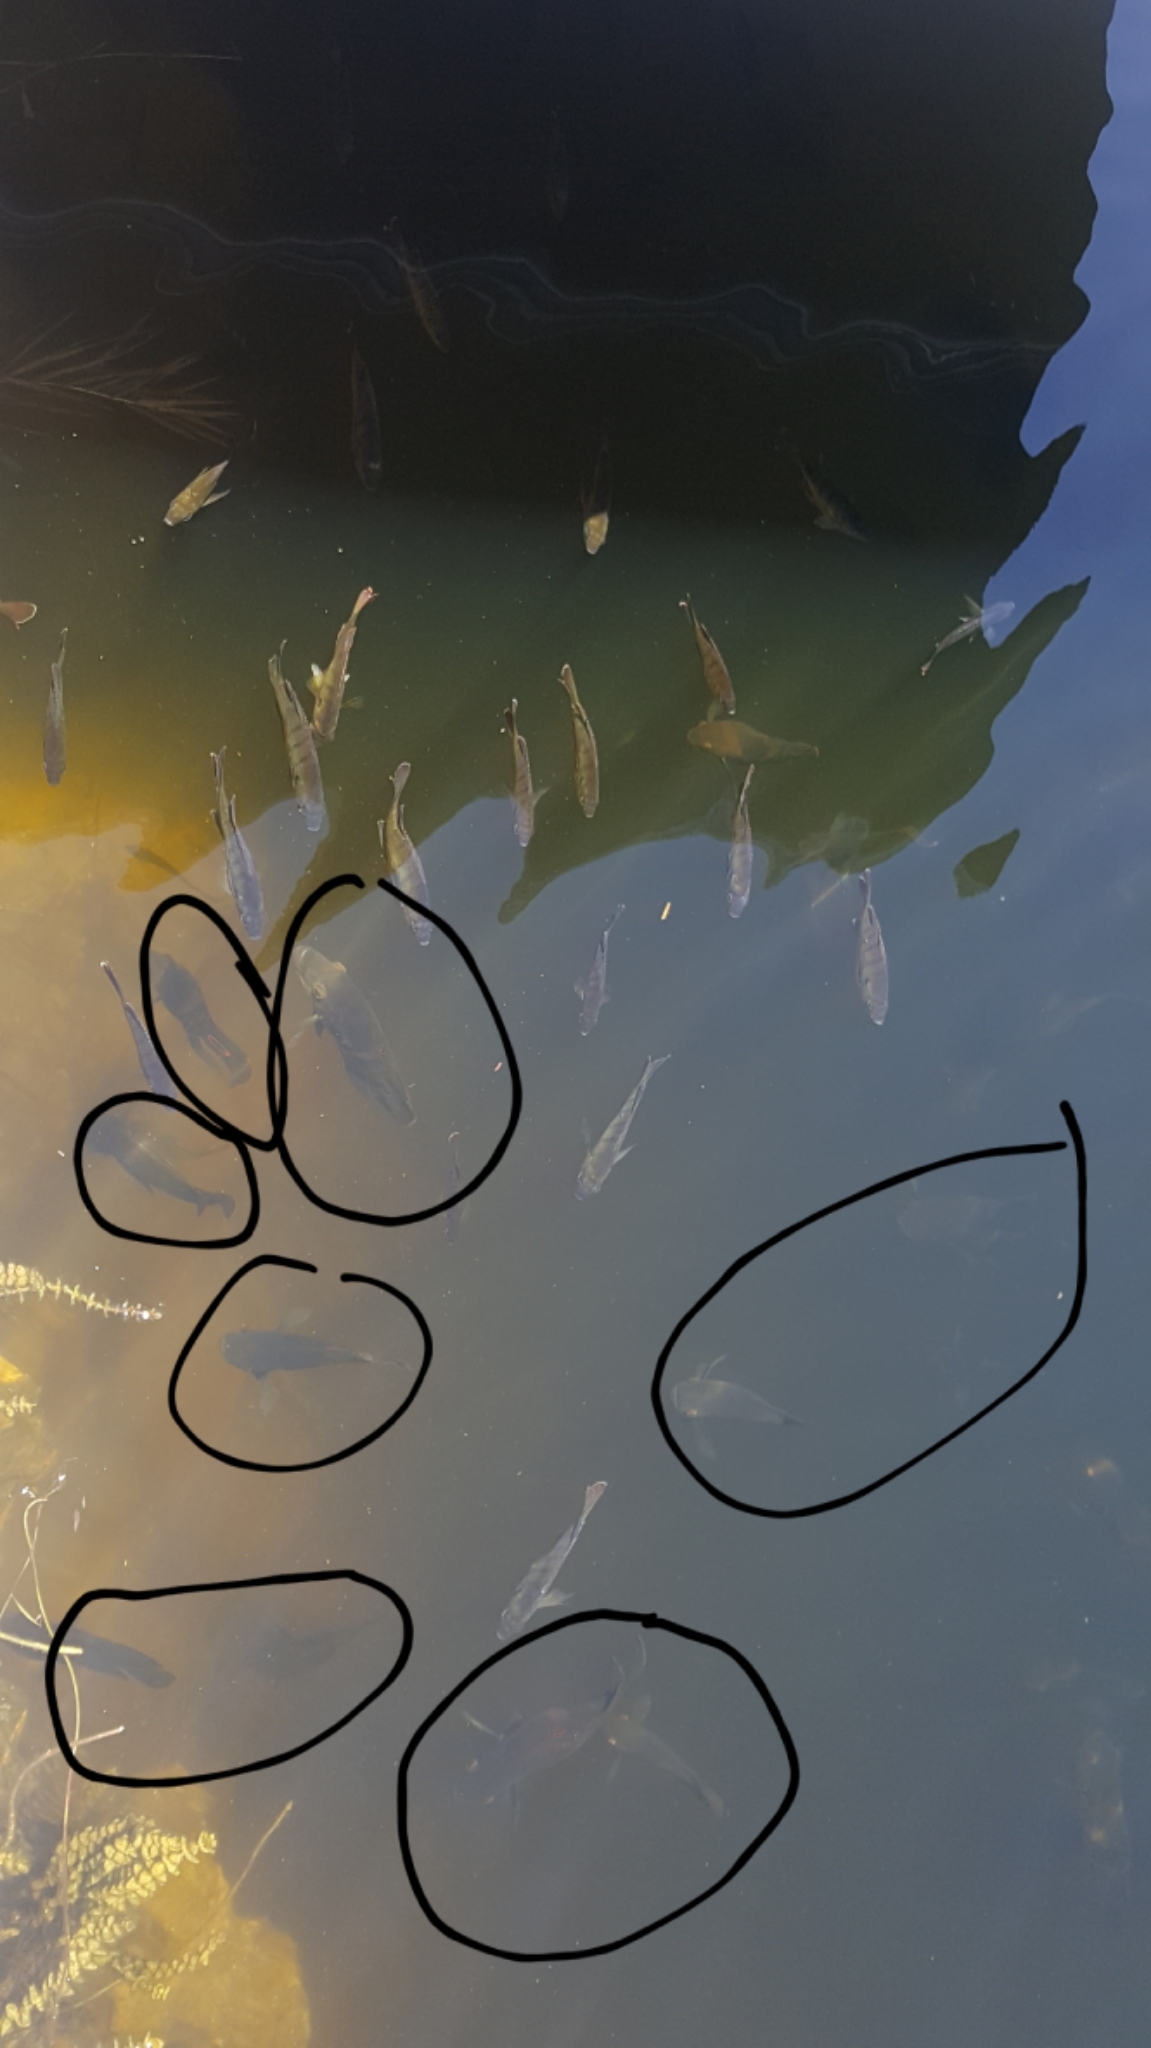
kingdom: Animalia
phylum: Chordata
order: Perciformes
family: Cichlidae
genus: Astronotus
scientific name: Astronotus ocellatus
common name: Oscar
